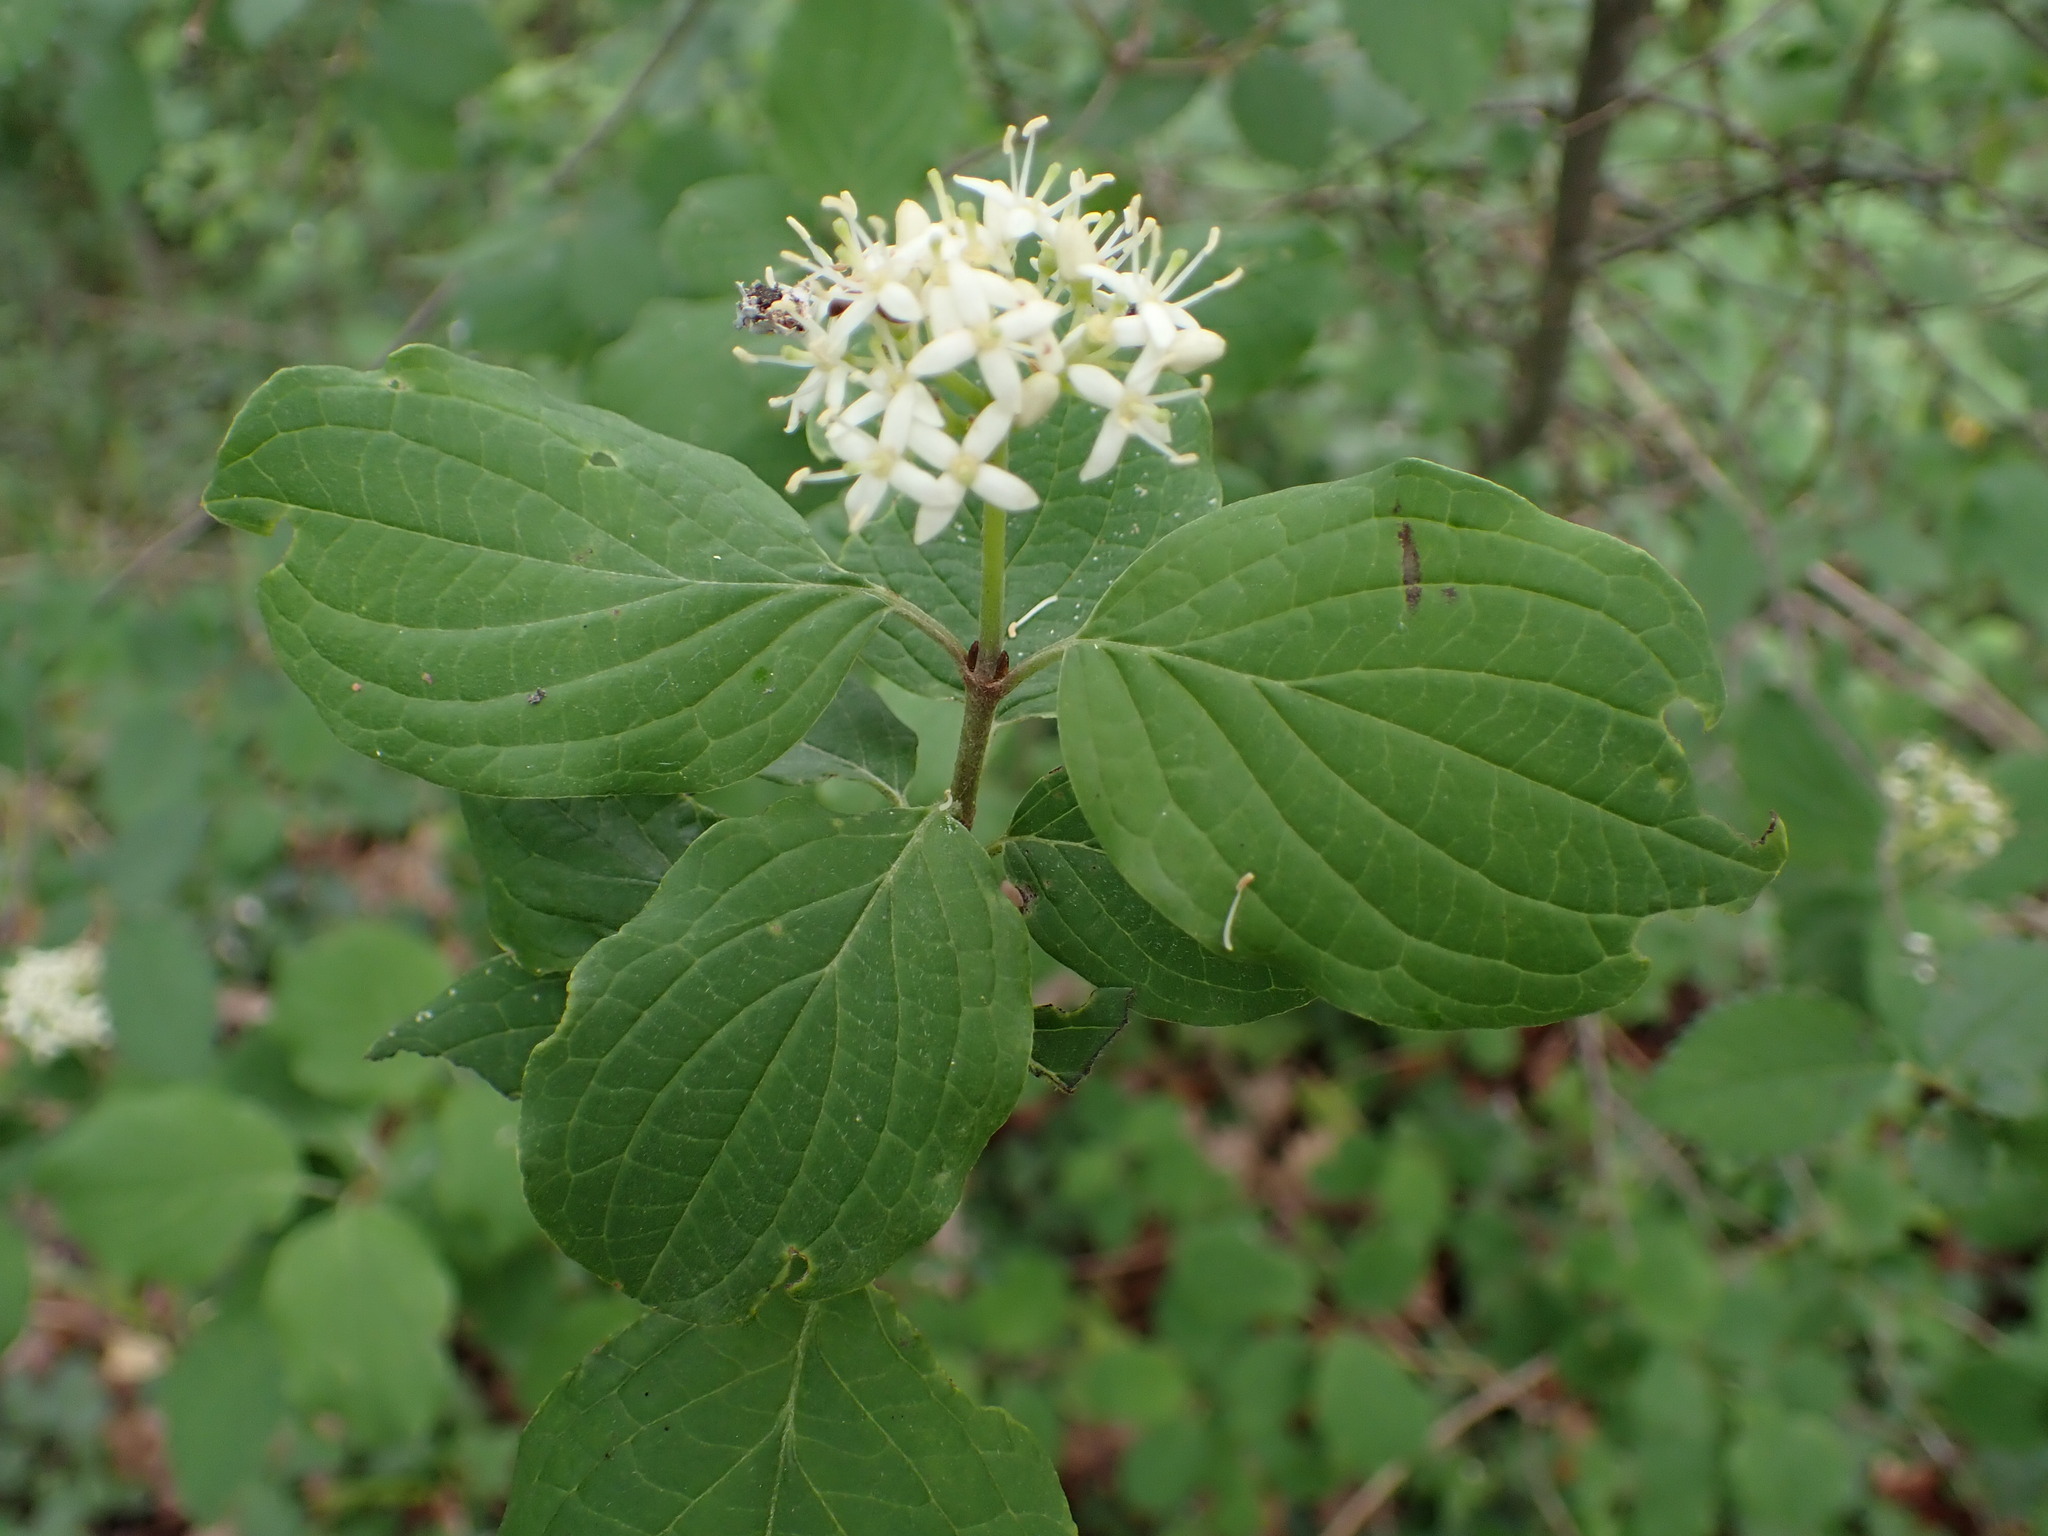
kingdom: Plantae
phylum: Tracheophyta
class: Magnoliopsida
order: Cornales
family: Cornaceae
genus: Cornus
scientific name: Cornus sanguinea
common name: Dogwood
